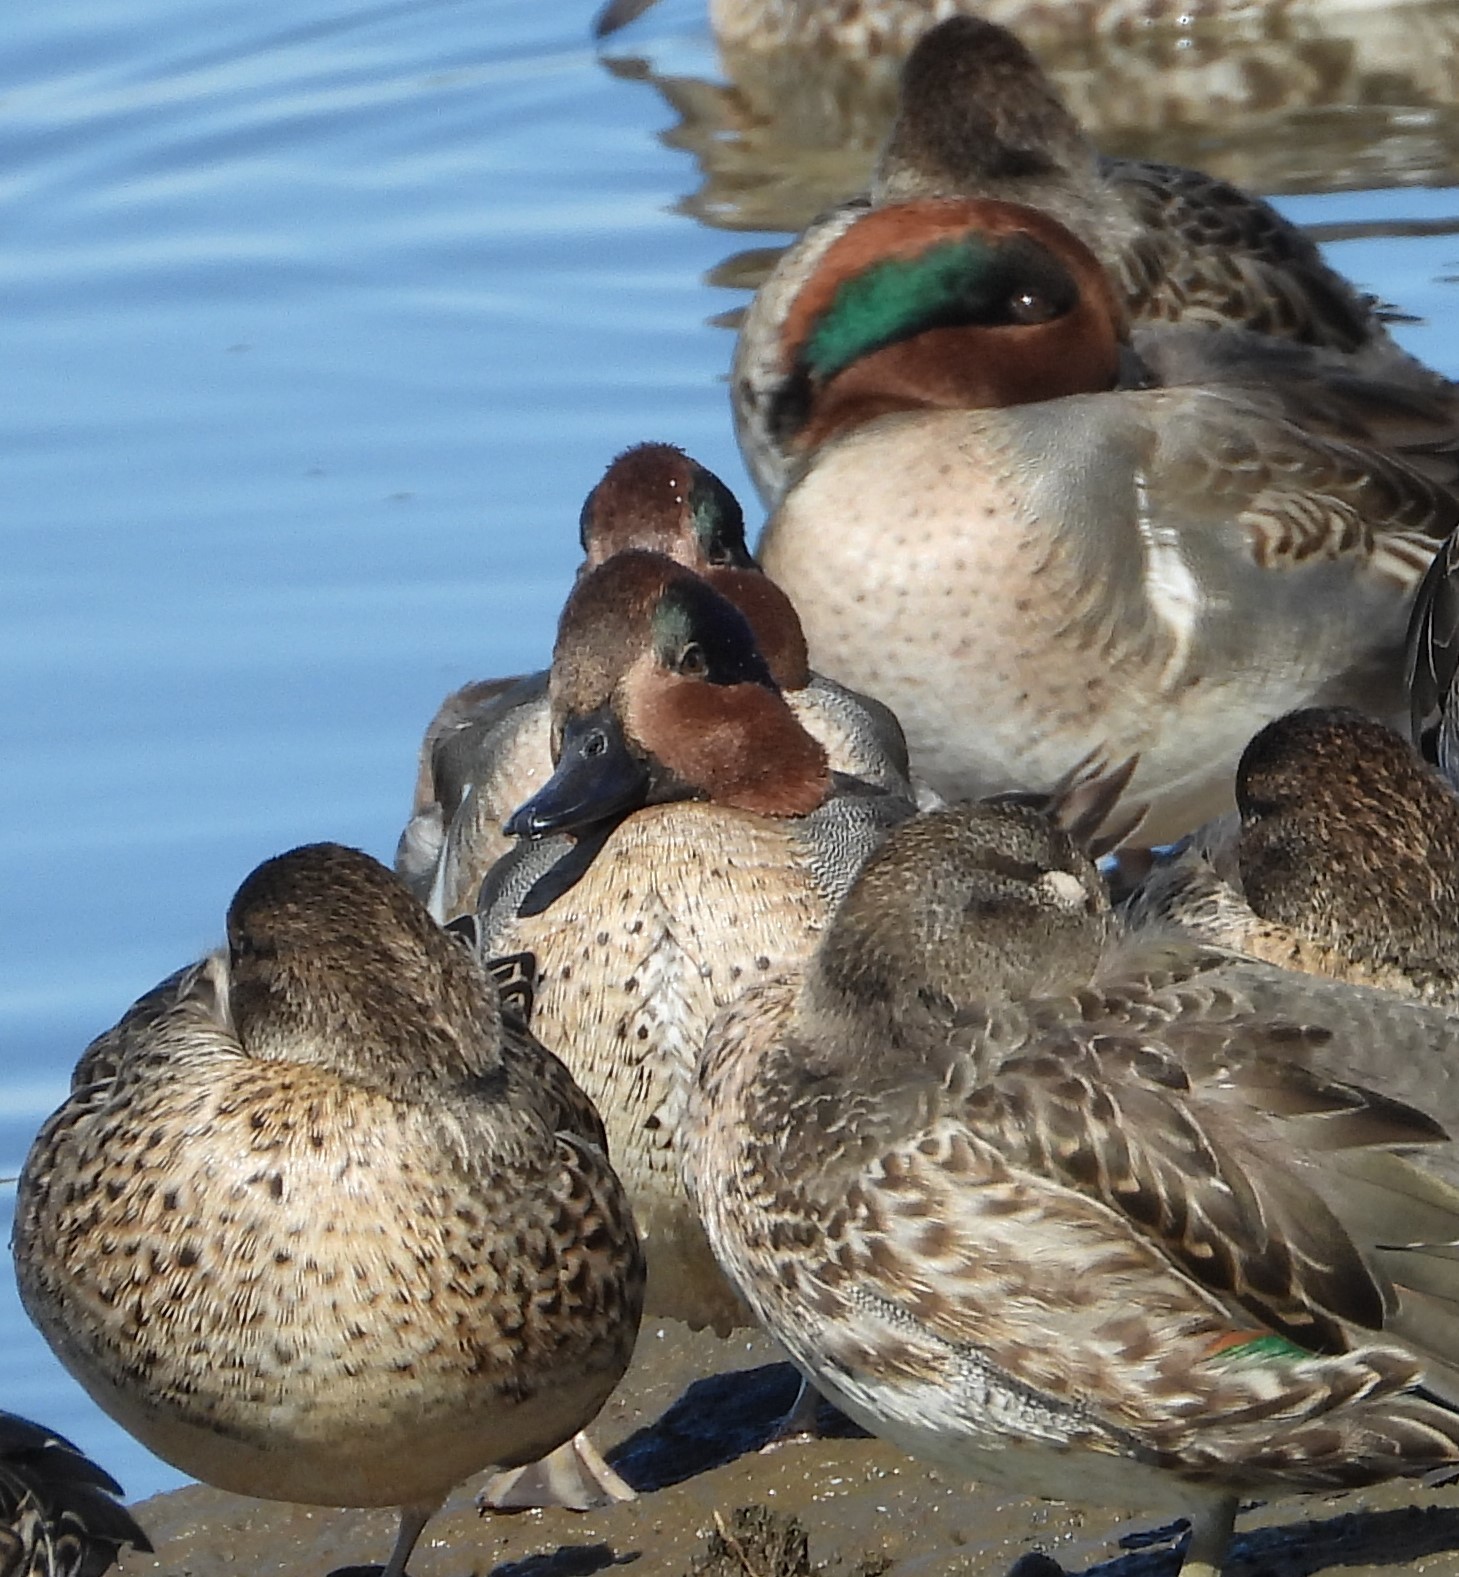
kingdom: Animalia
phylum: Chordata
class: Aves
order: Anseriformes
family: Anatidae
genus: Anas
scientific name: Anas crecca
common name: Eurasian teal
